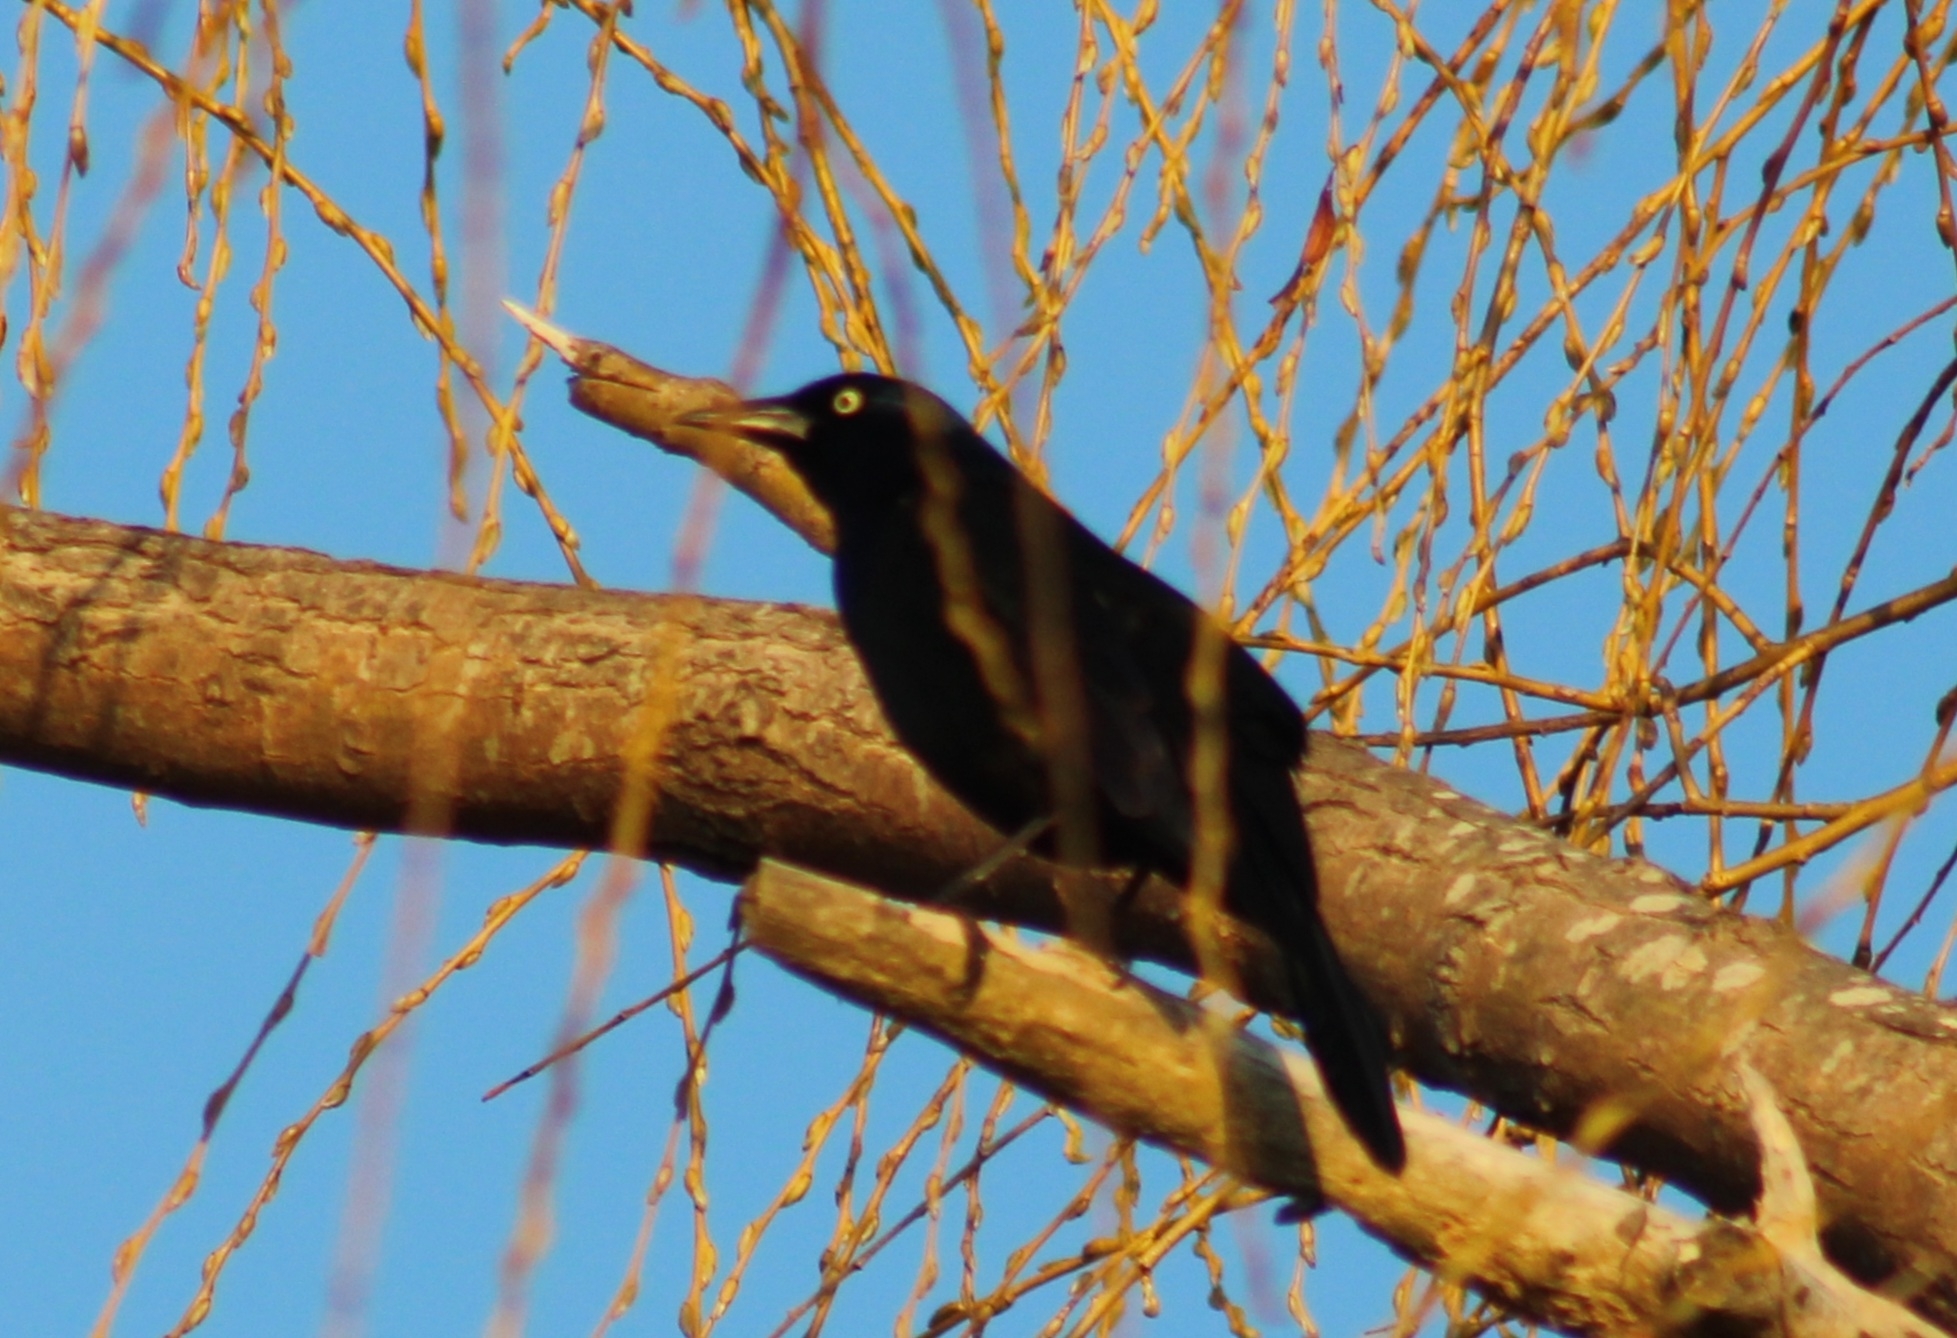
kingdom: Animalia
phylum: Chordata
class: Aves
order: Passeriformes
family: Icteridae
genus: Quiscalus
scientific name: Quiscalus quiscula
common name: Common grackle
